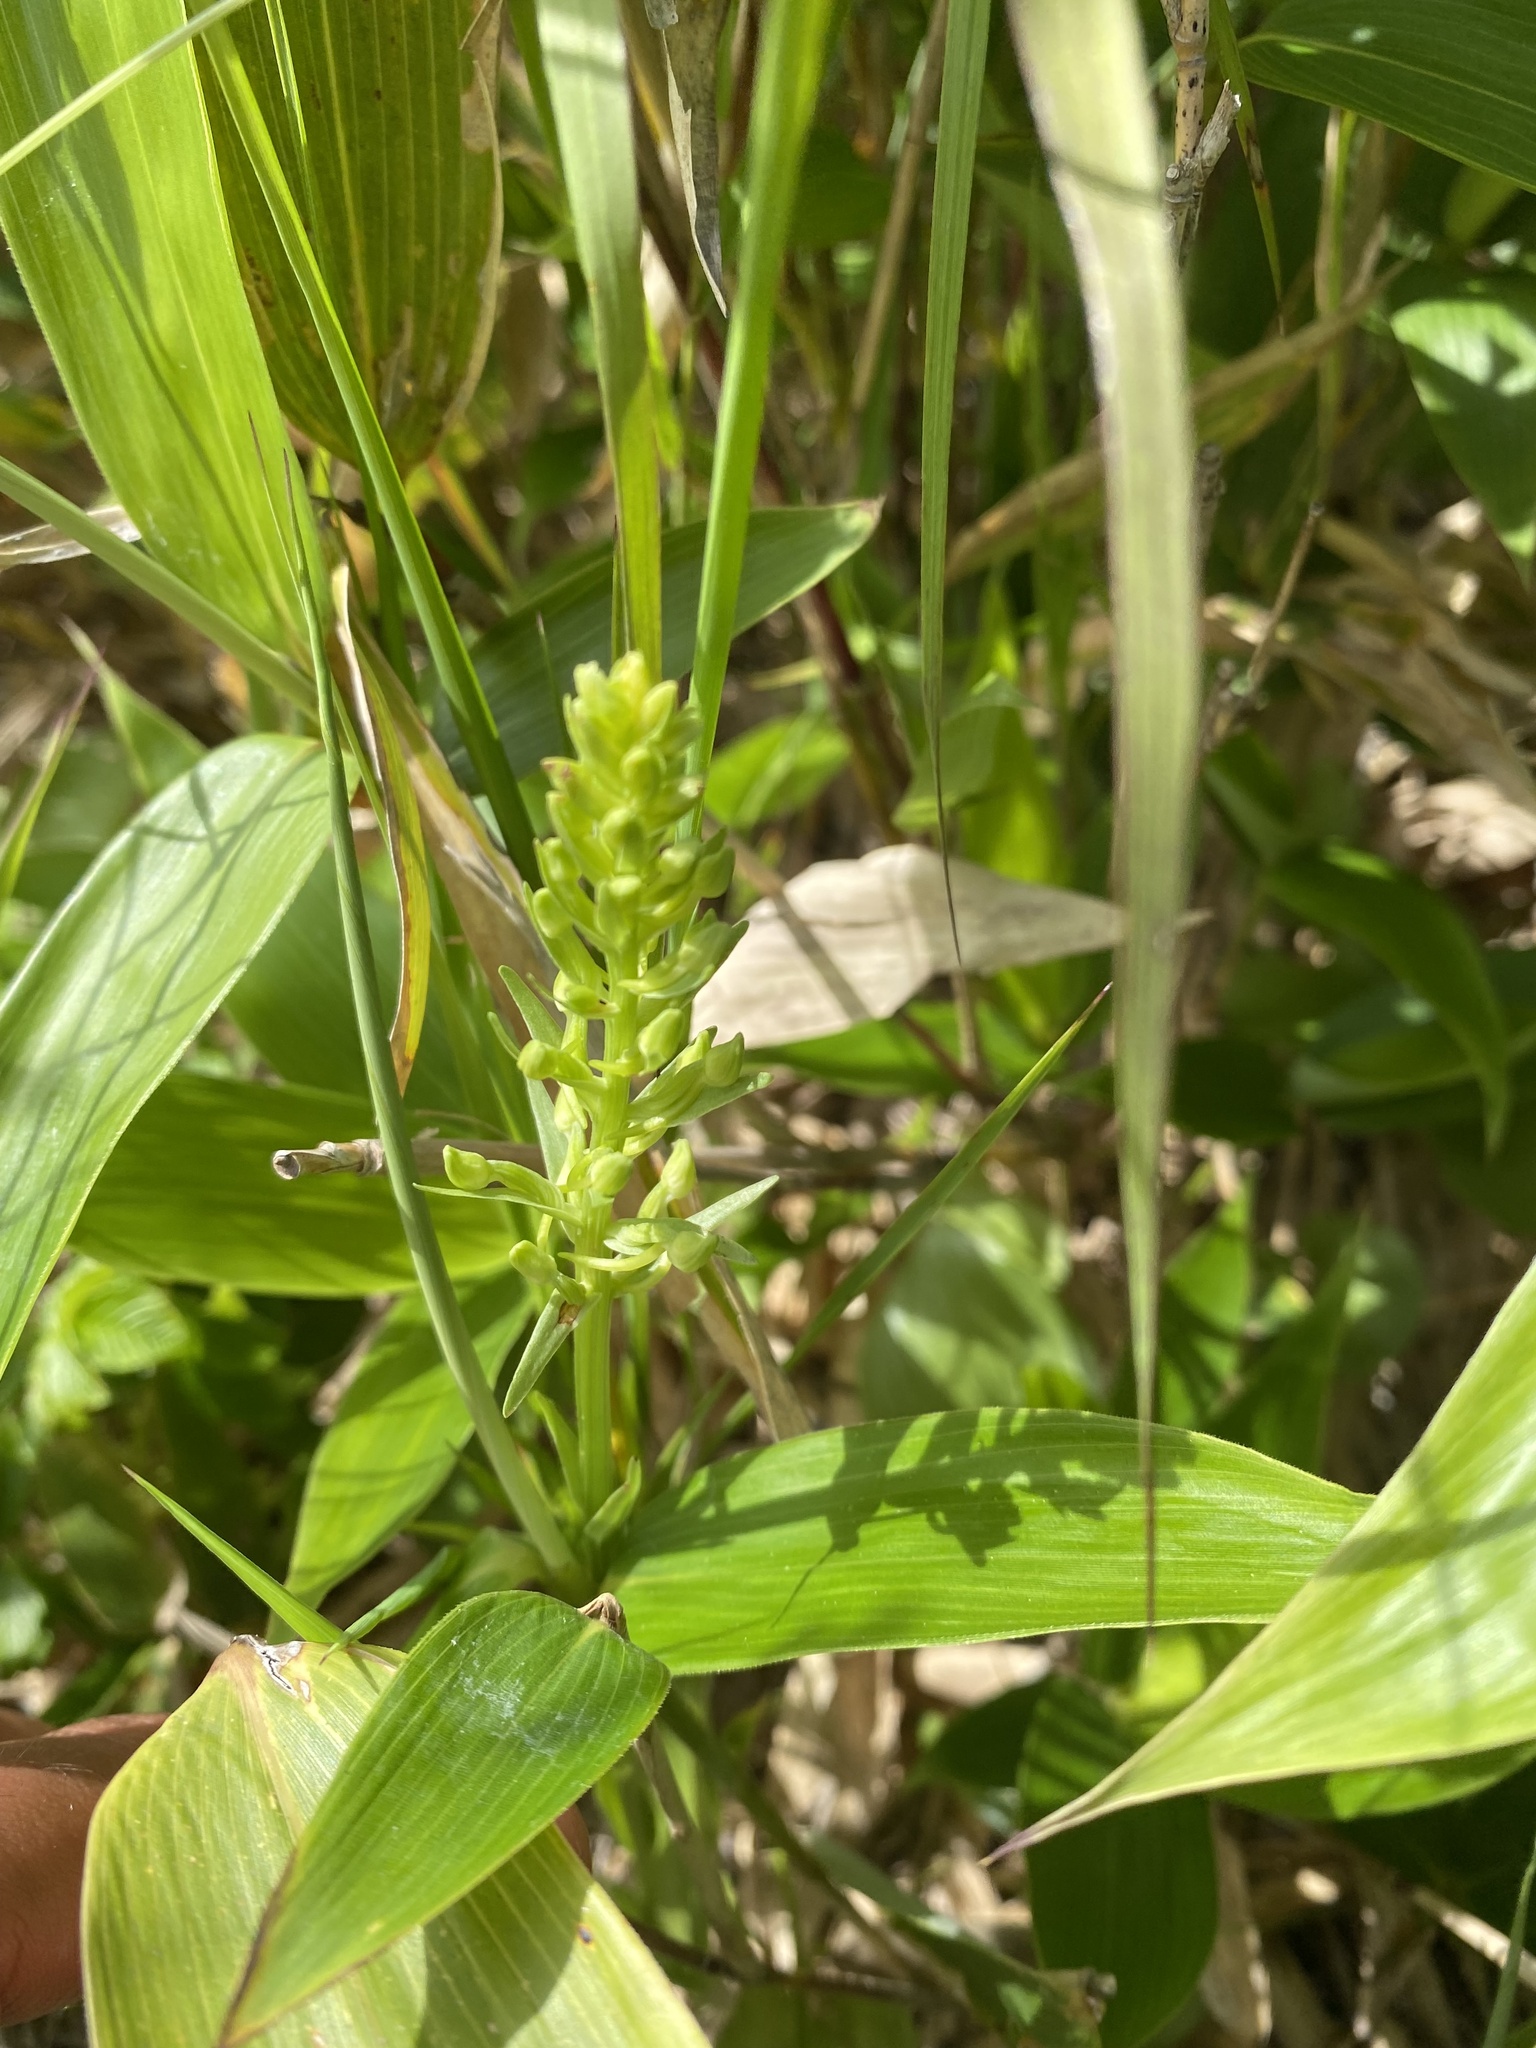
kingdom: Plantae
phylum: Tracheophyta
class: Liliopsida
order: Asparagales
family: Orchidaceae
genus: Platanthera
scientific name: Platanthera tipuloides
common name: Aleutian bog orchid
